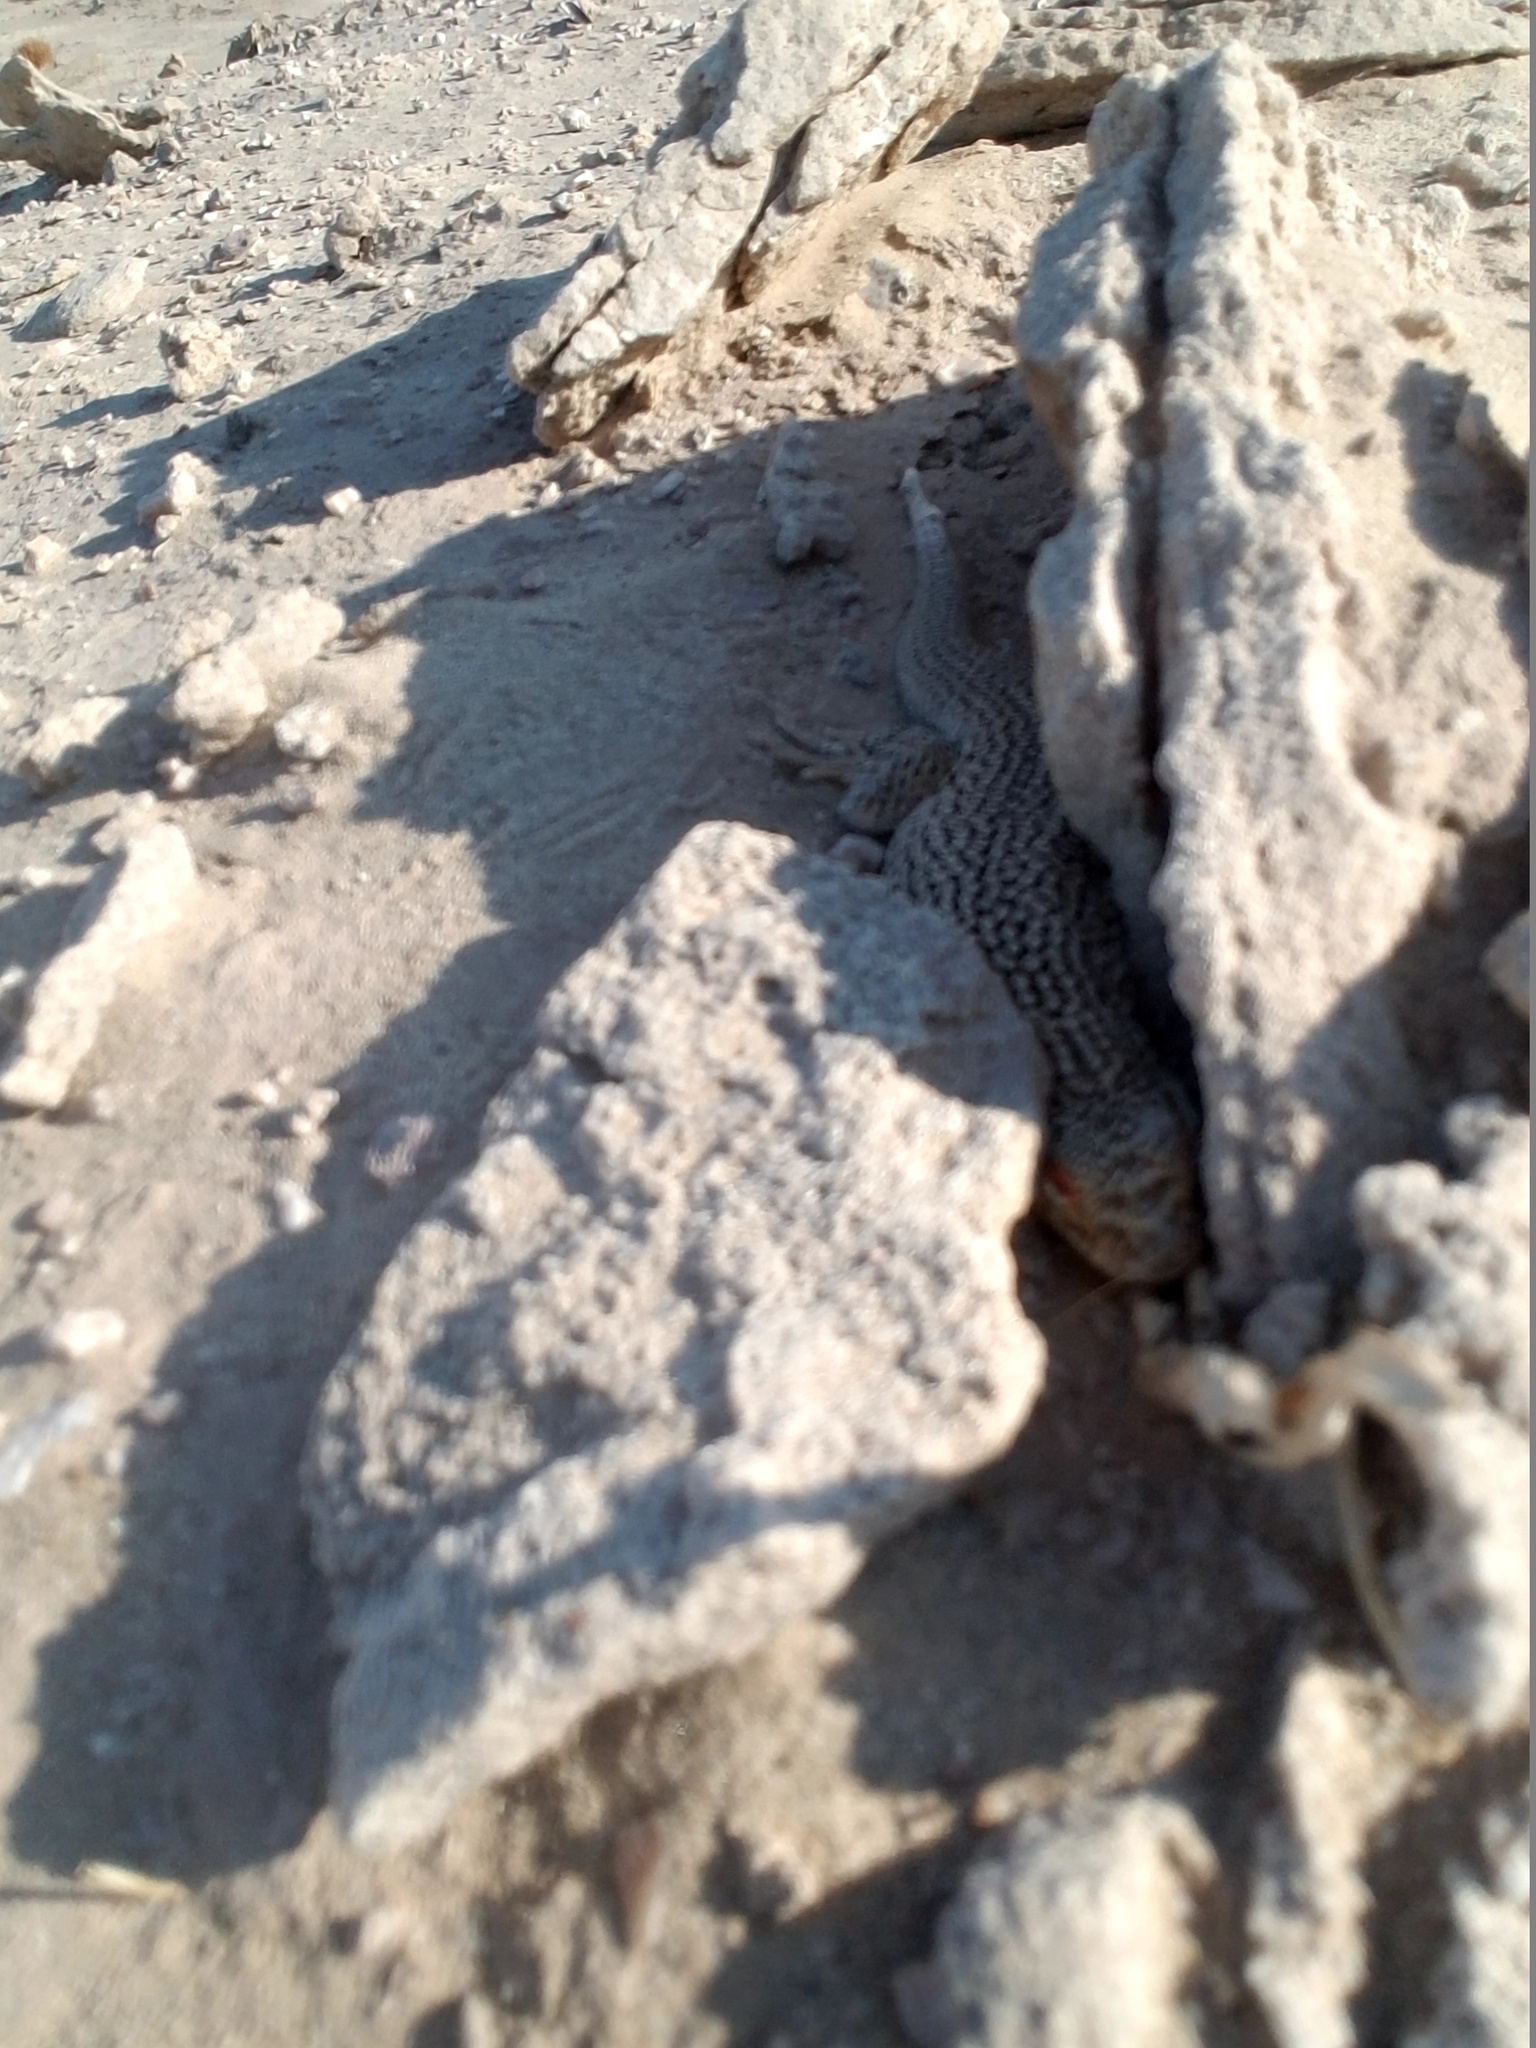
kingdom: Animalia
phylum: Chordata
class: Squamata
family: Phrynosomatidae
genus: Uma
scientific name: Uma notata
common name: Colorado desert fringe-toed lizard
